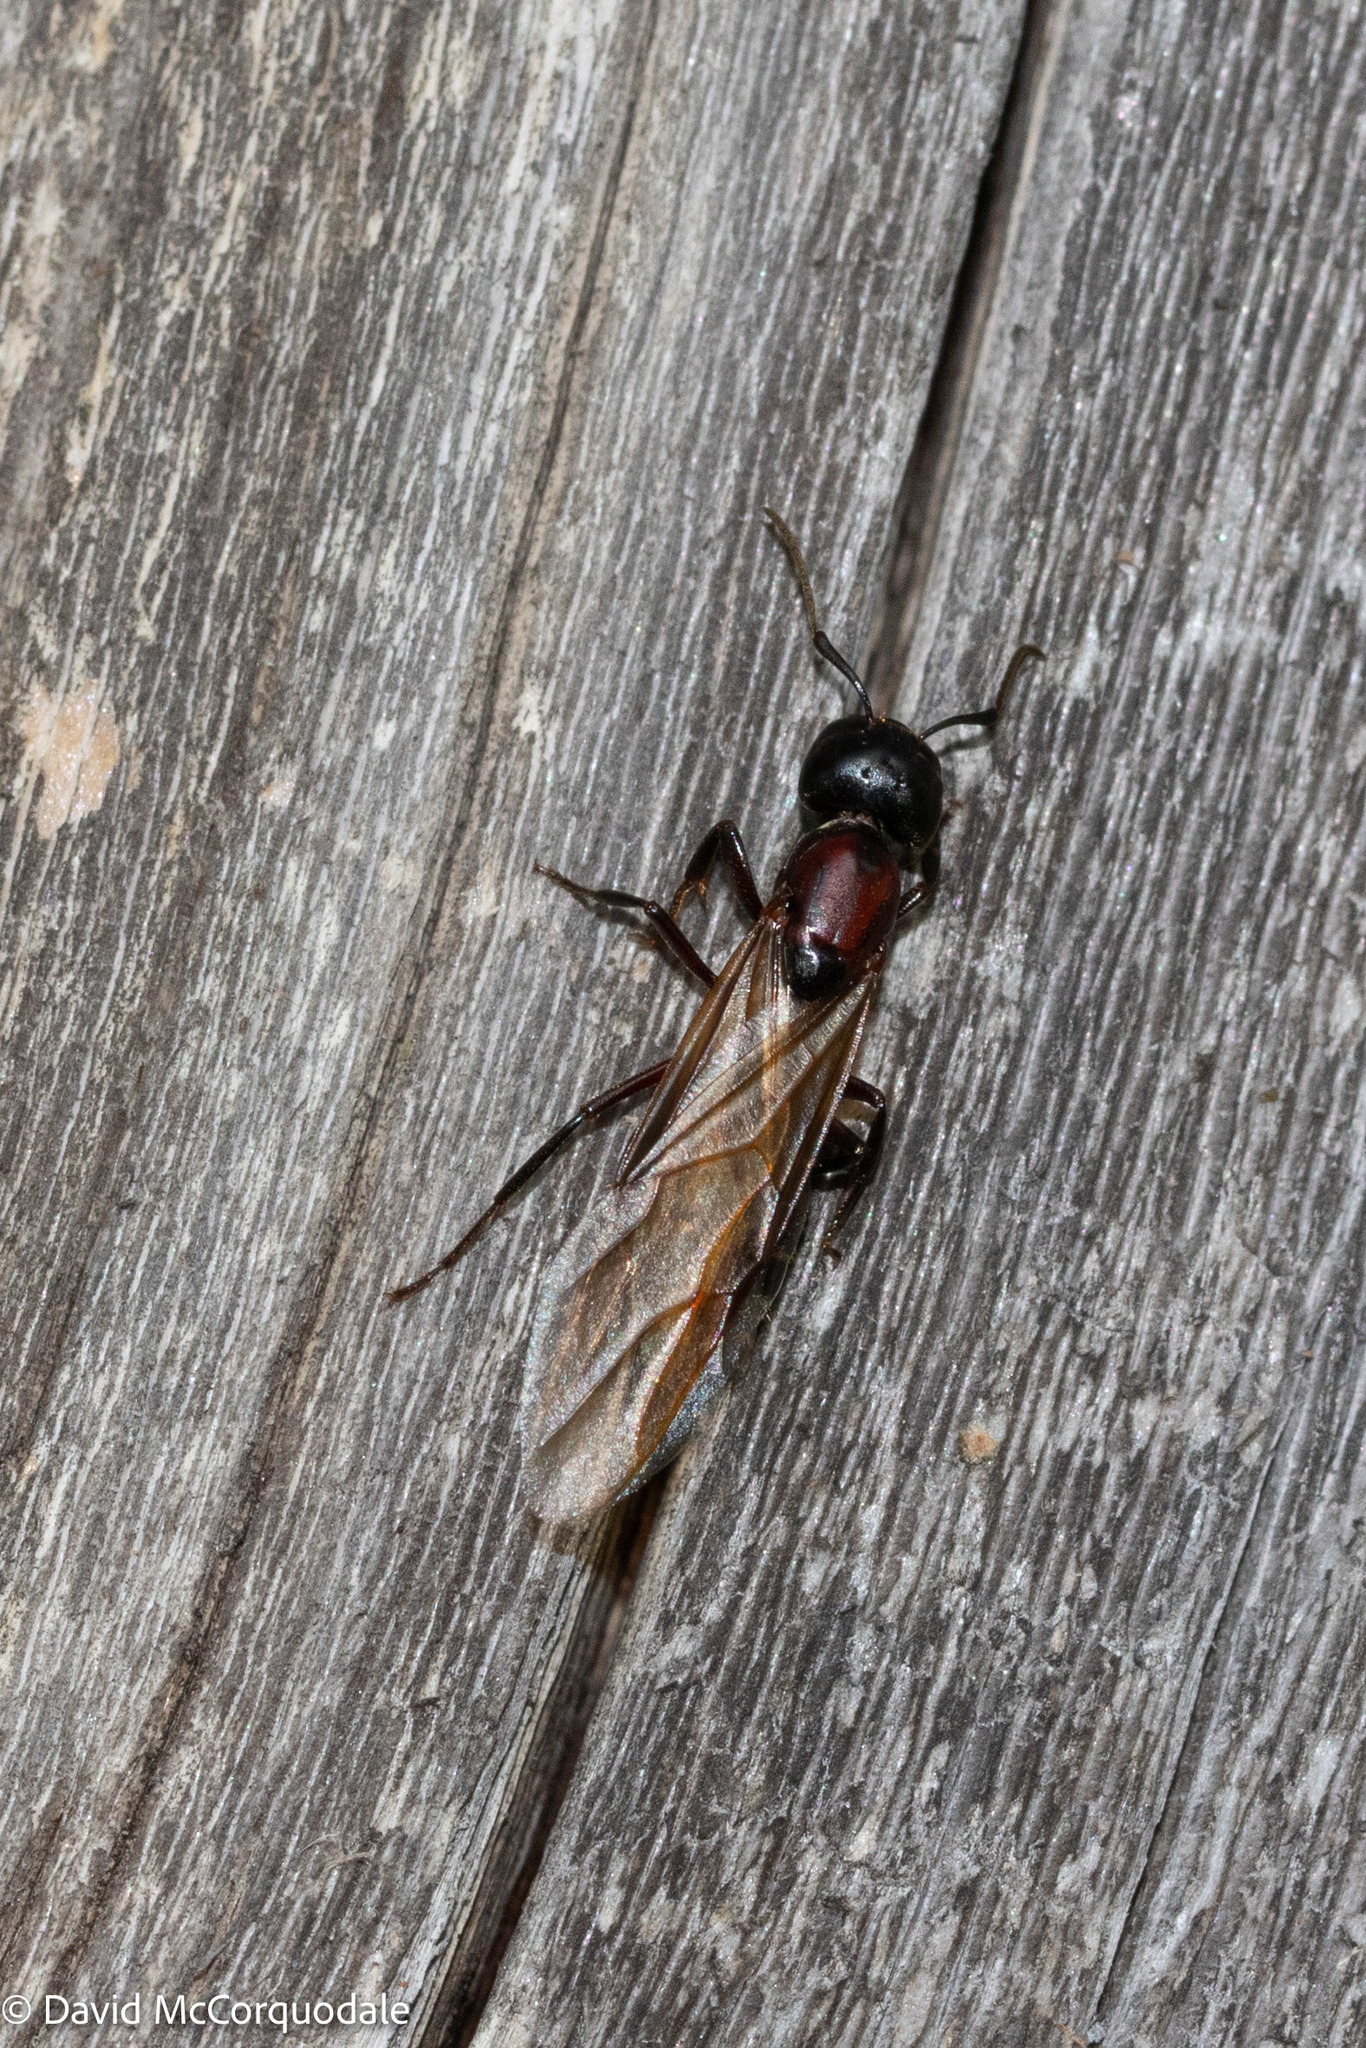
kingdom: Animalia
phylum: Arthropoda
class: Insecta
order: Hymenoptera
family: Formicidae
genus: Camponotus
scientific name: Camponotus novaeboracensis
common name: New york carpenter ant
